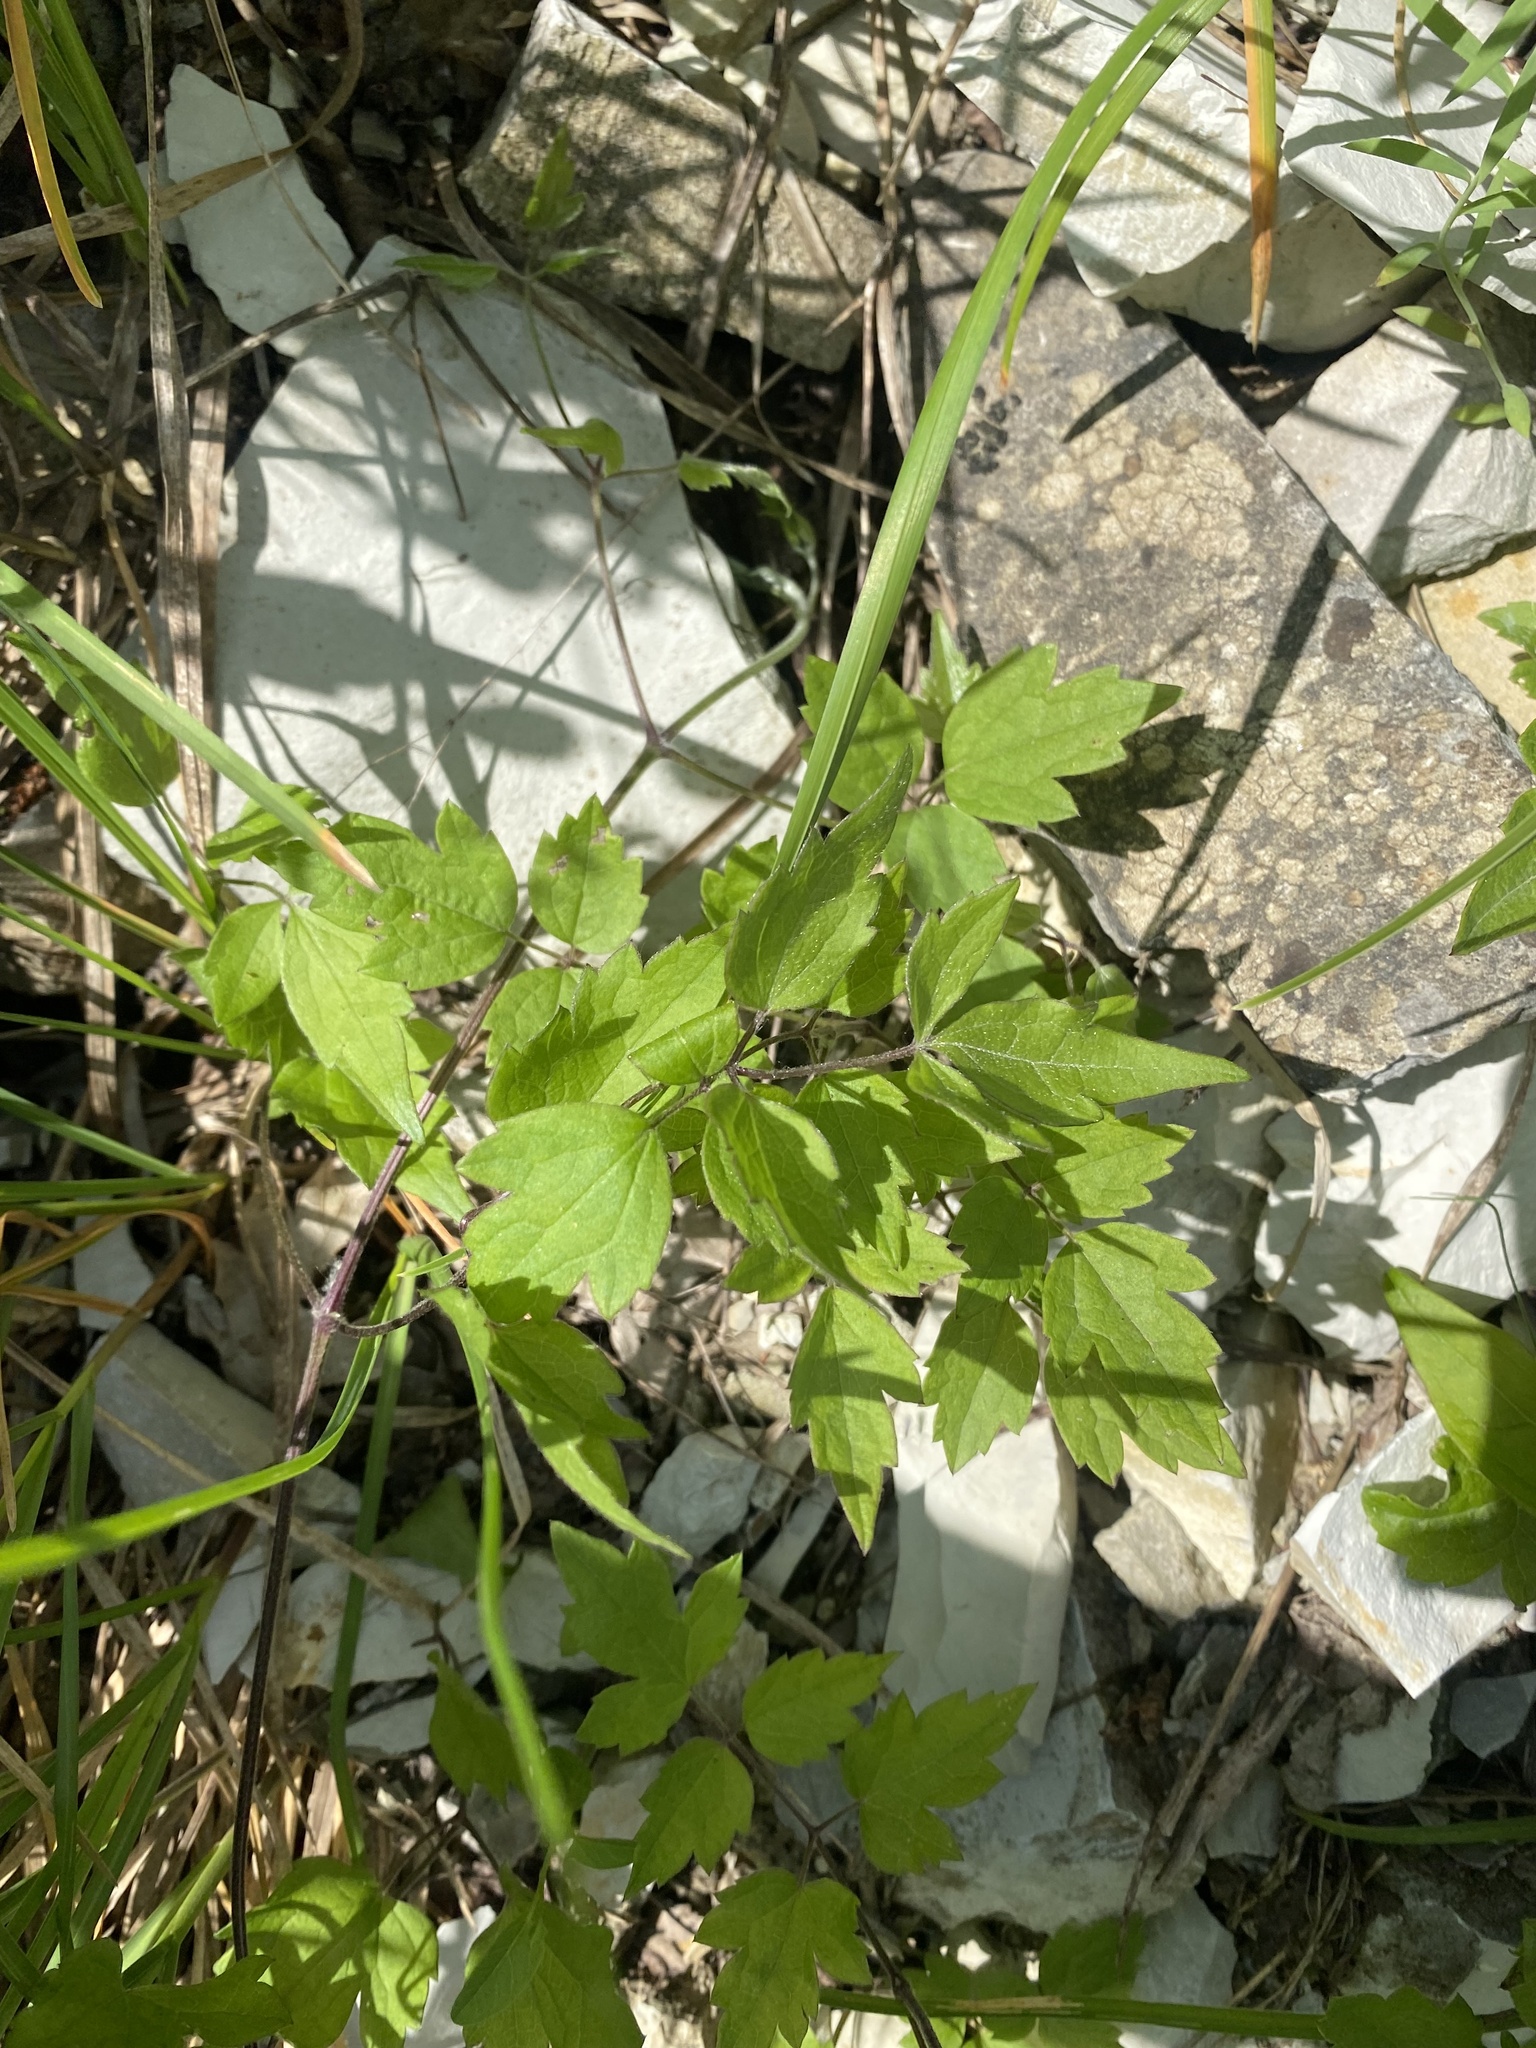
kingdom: Plantae
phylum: Tracheophyta
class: Magnoliopsida
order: Ranunculales
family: Ranunculaceae
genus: Clematis
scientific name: Clematis vitalba
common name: Evergreen clematis
